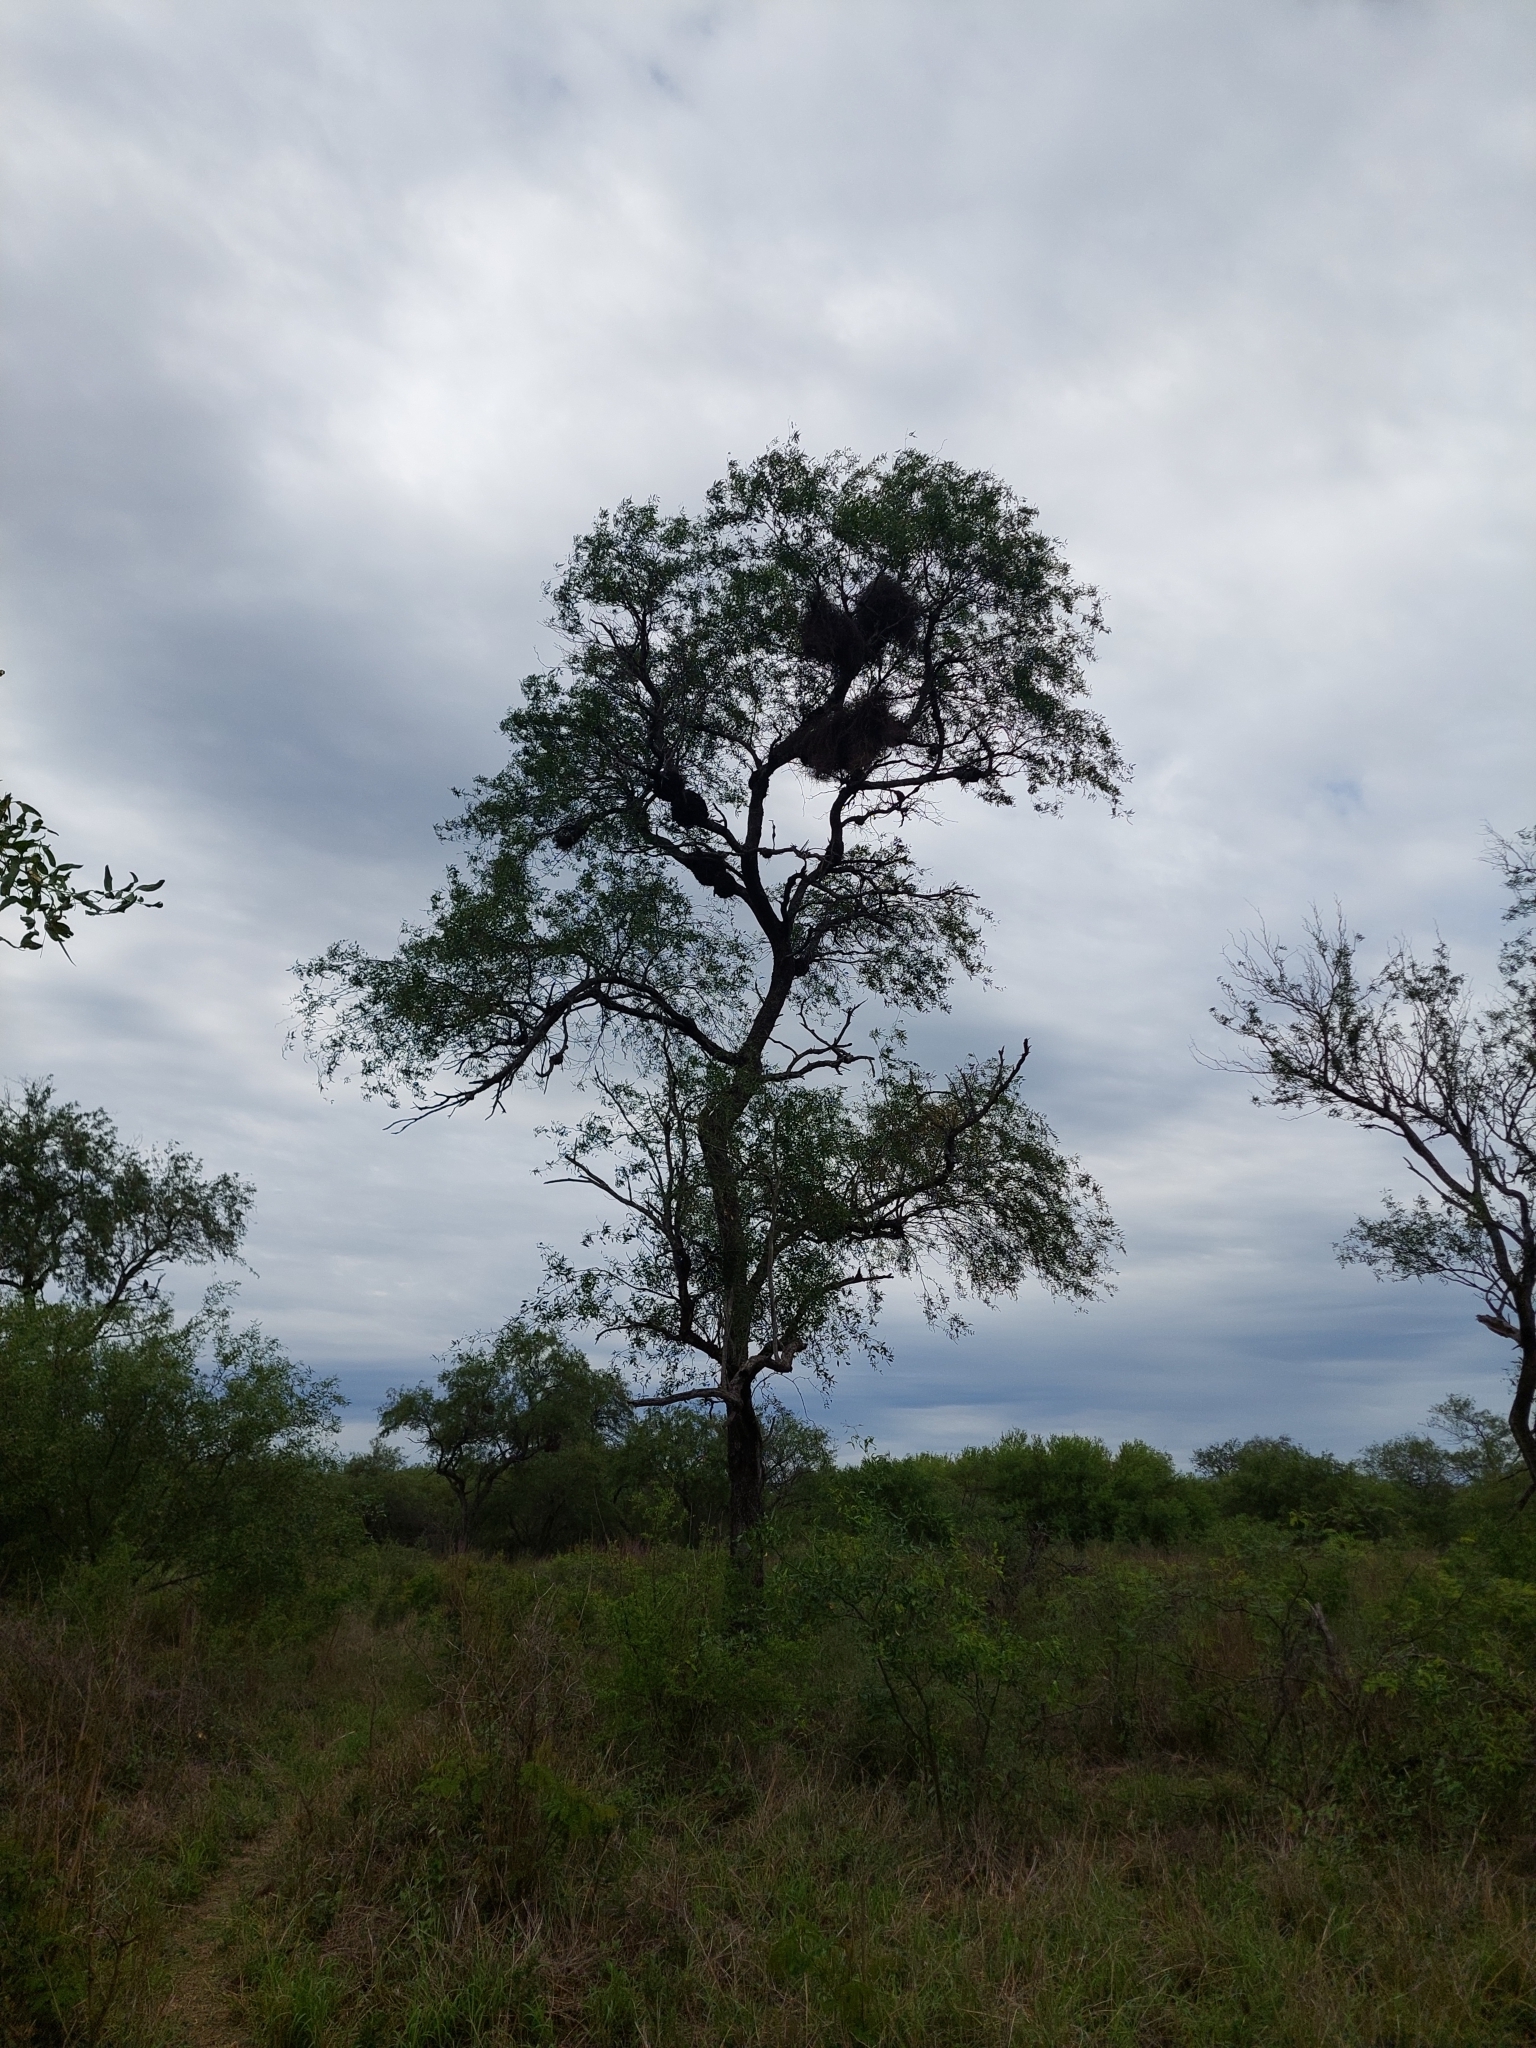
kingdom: Plantae
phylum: Tracheophyta
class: Magnoliopsida
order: Fabales
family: Fabaceae
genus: Prosopis
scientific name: Prosopis ruscifolia
